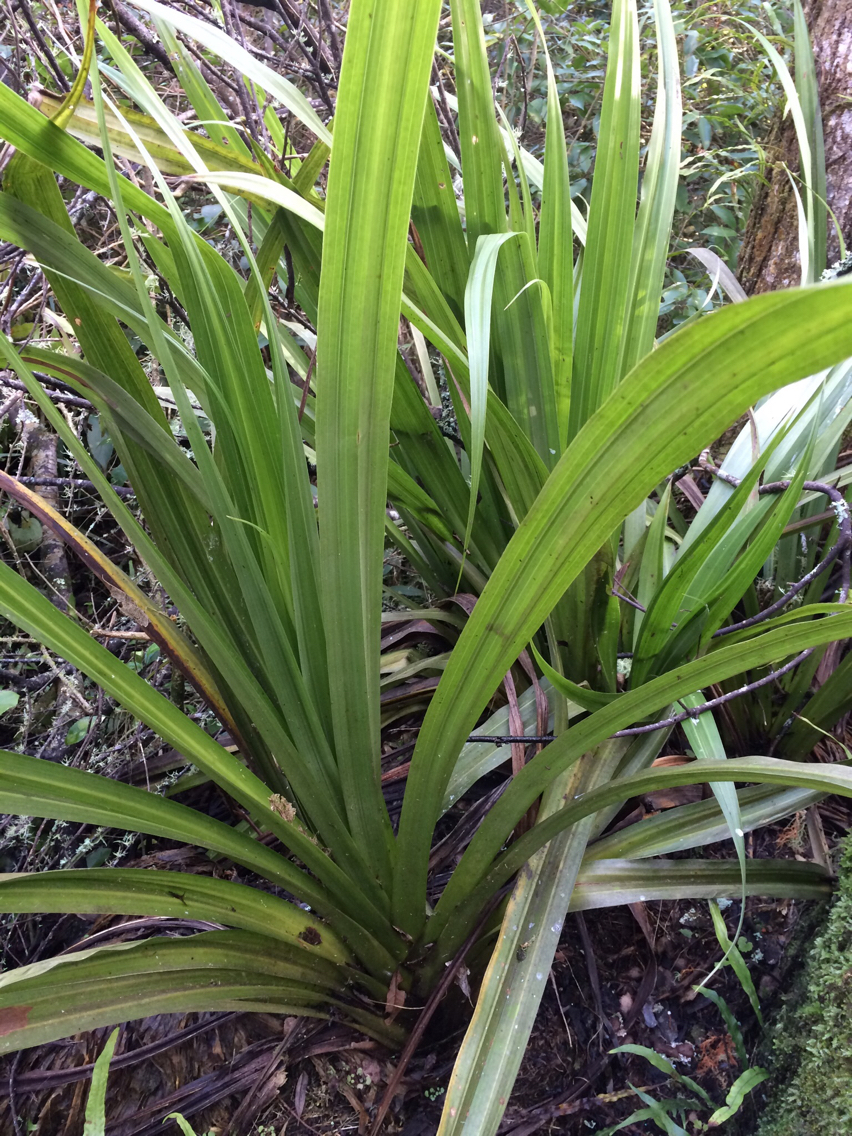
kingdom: Plantae
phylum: Tracheophyta
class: Liliopsida
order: Asparagales
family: Asteliaceae
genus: Astelia
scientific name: Astelia fragrans
